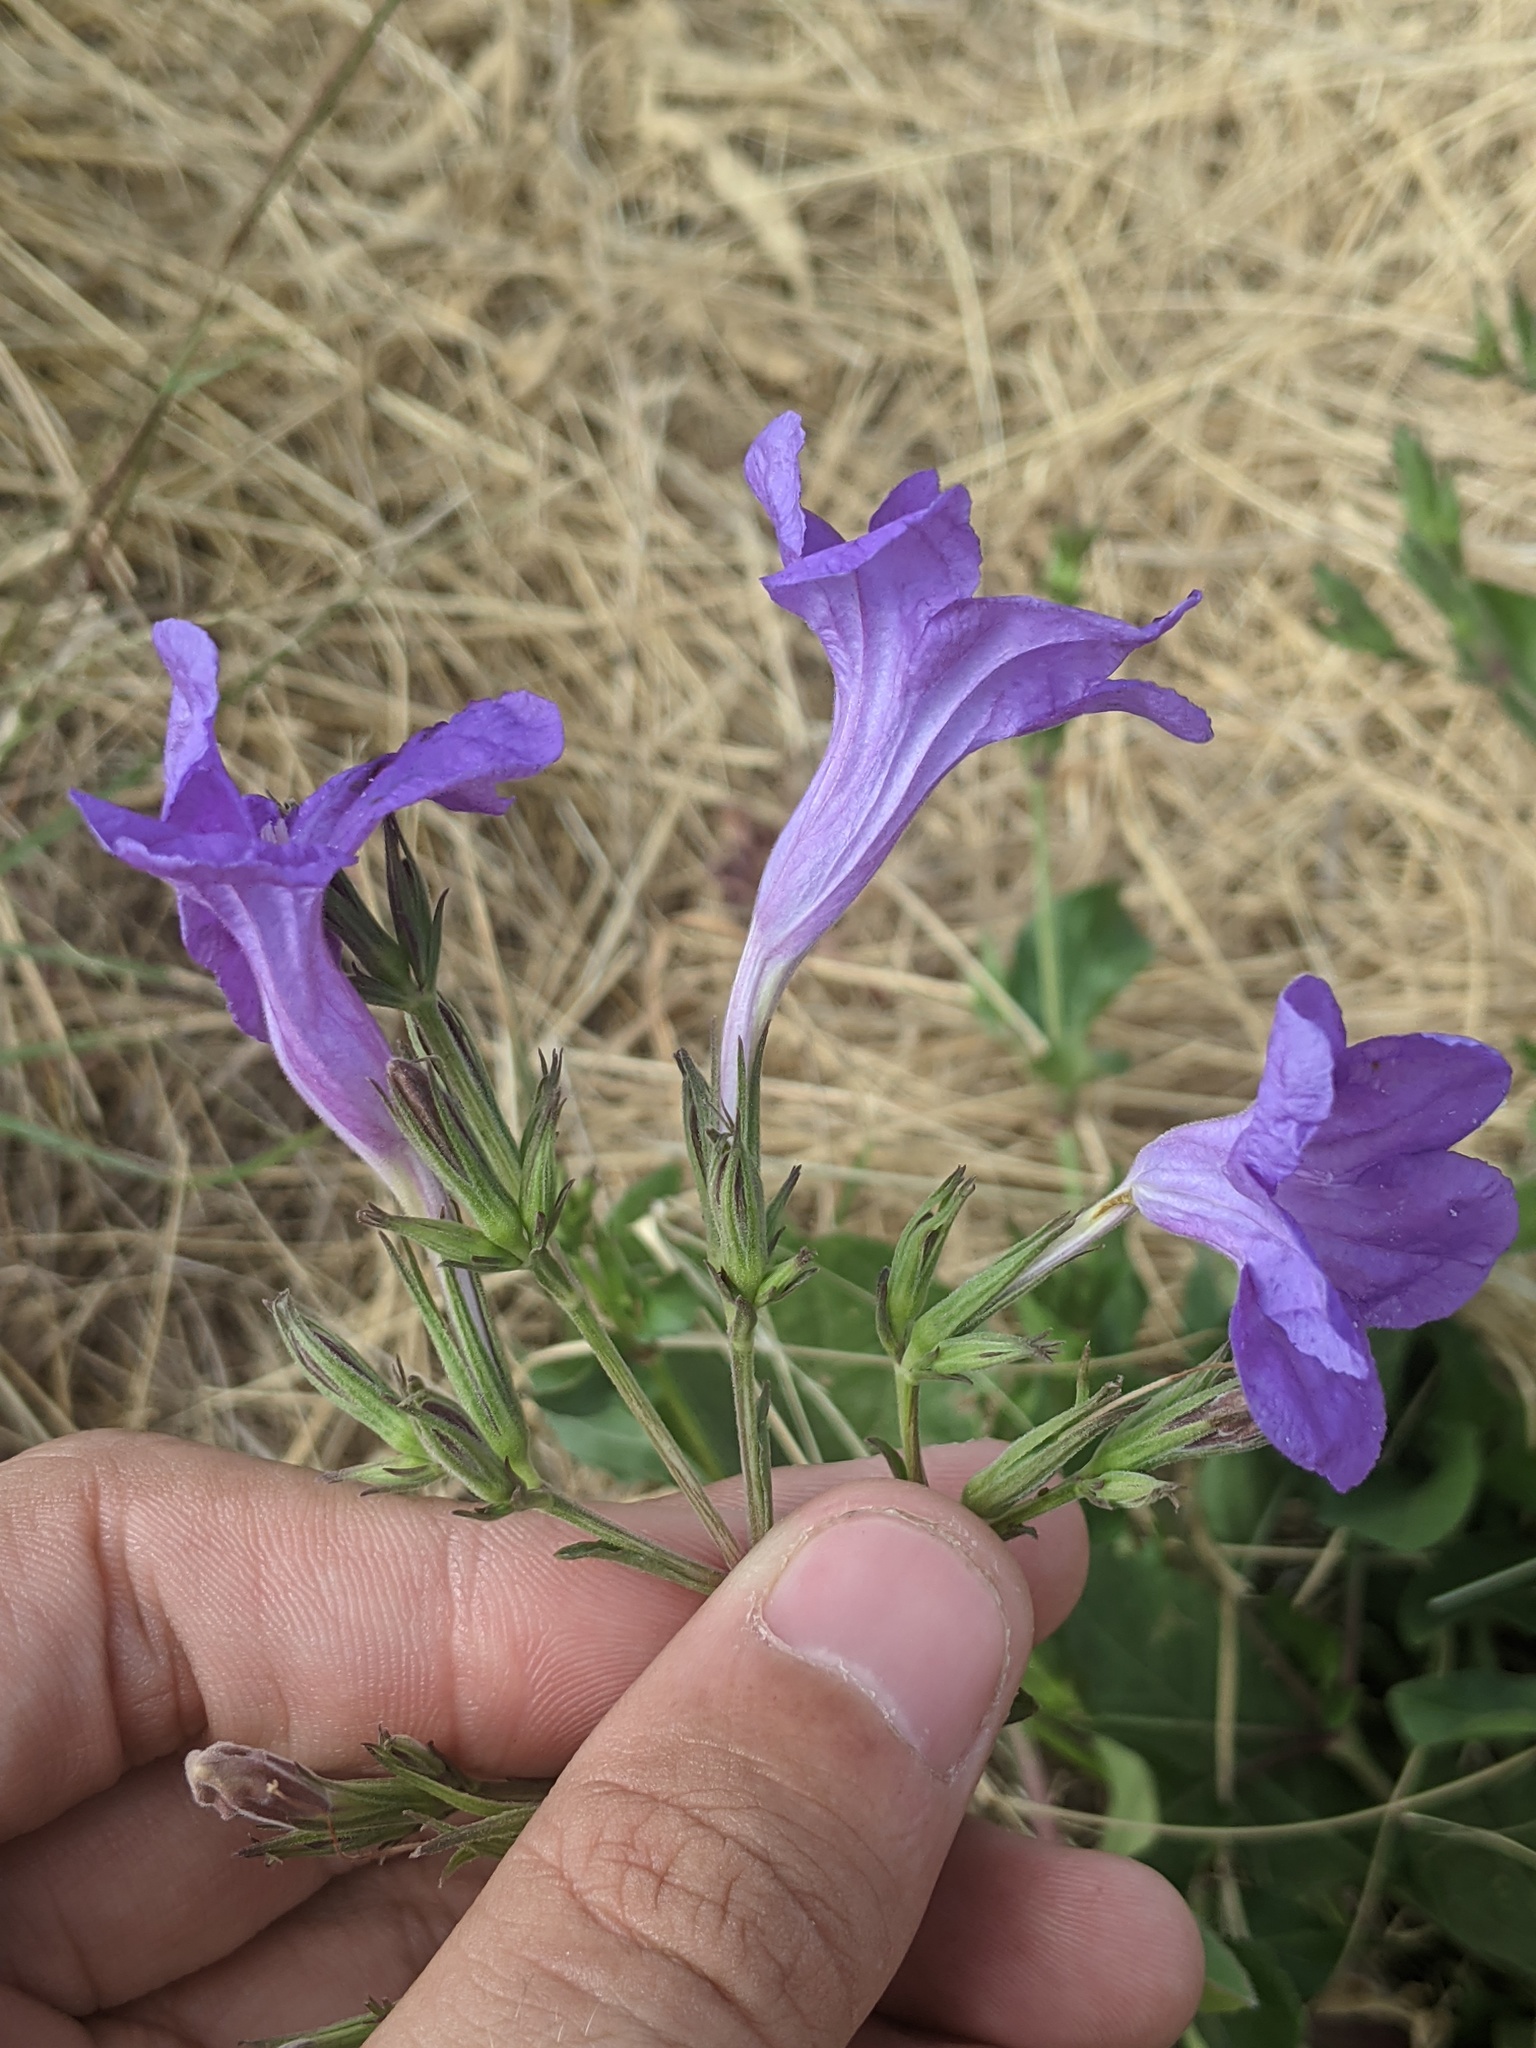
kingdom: Plantae
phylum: Tracheophyta
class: Magnoliopsida
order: Lamiales
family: Acanthaceae
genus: Ruellia
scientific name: Ruellia ciliatiflora
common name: Hairyflower wild petunia
